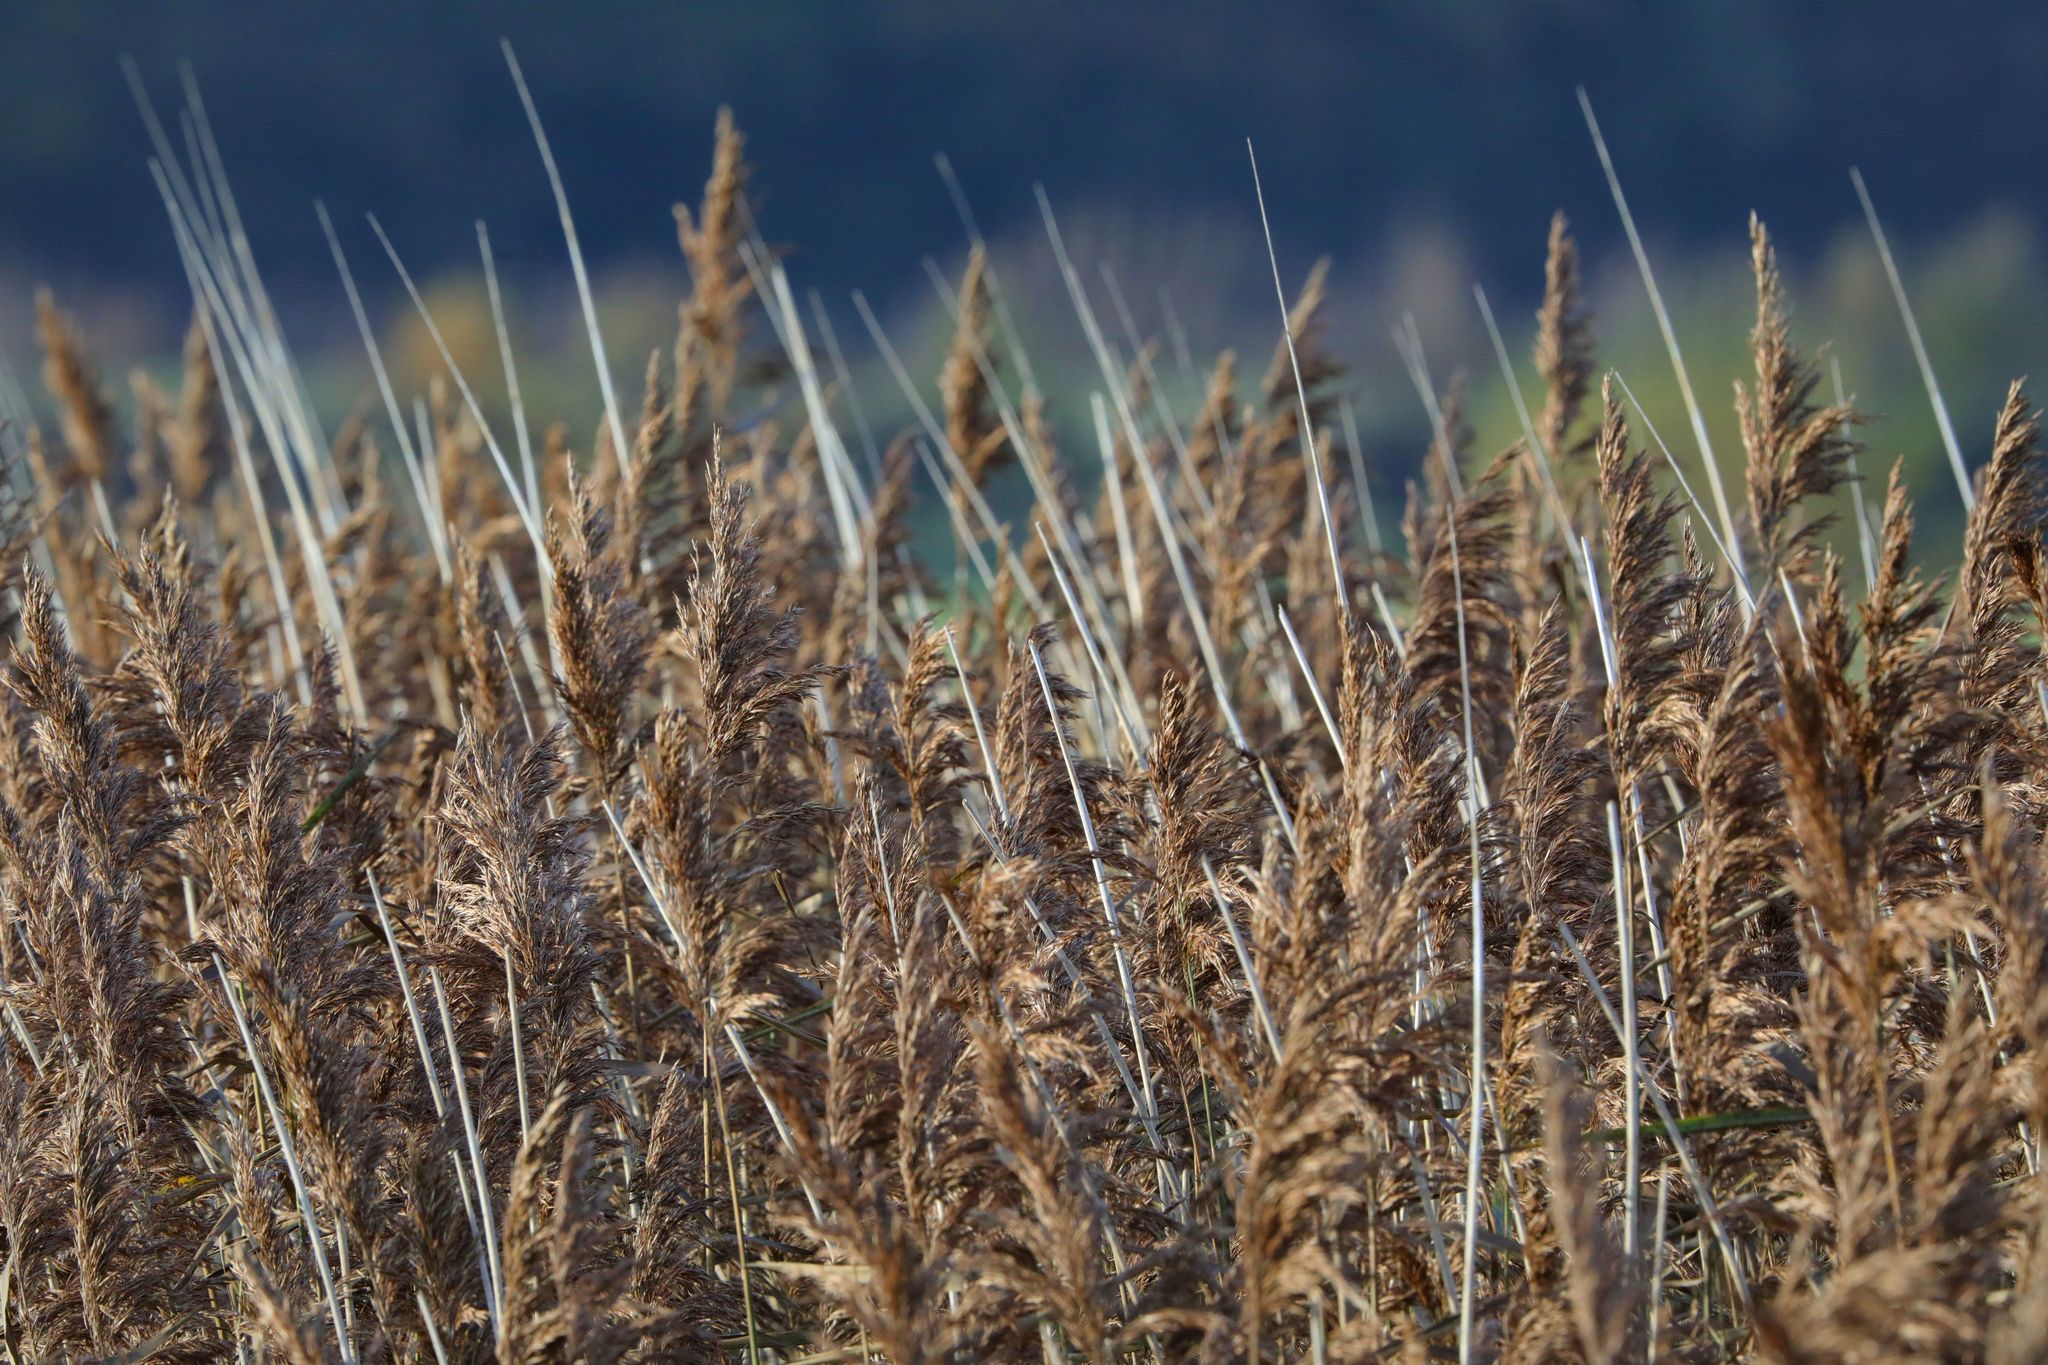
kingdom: Plantae
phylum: Tracheophyta
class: Liliopsida
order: Poales
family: Poaceae
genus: Phragmites
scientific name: Phragmites australis
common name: Common reed
